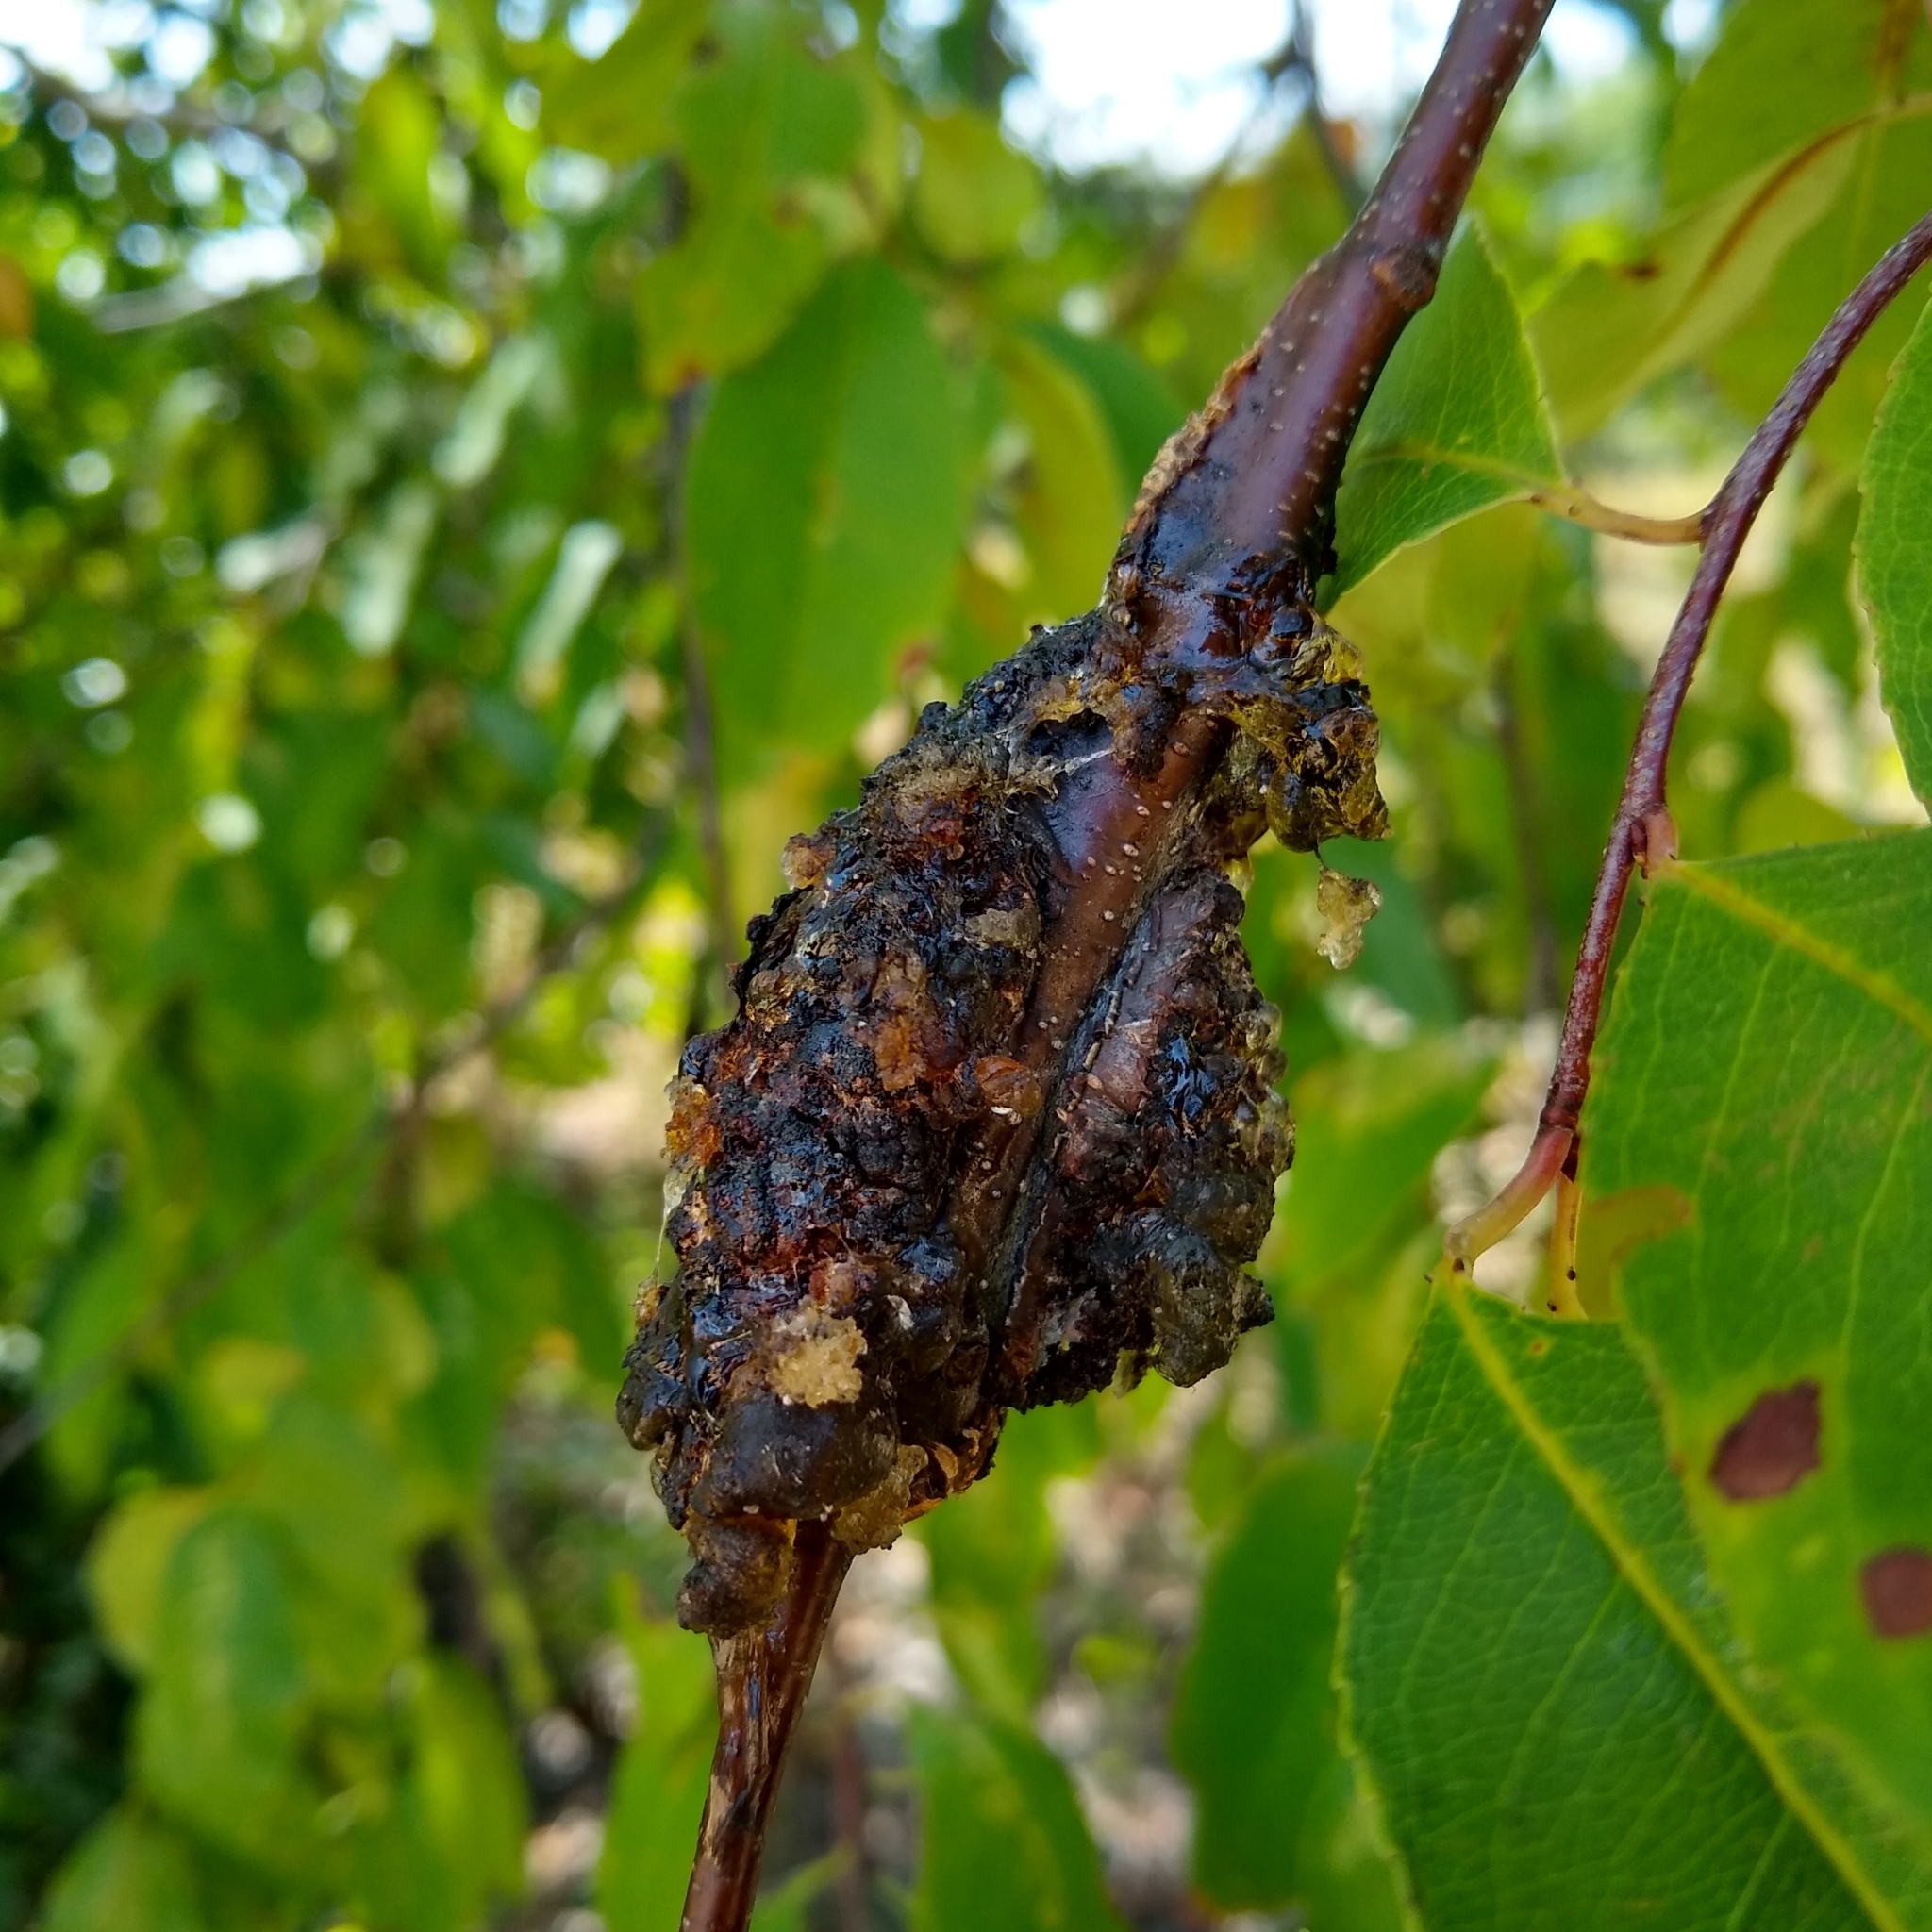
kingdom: Fungi
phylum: Ascomycota
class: Dothideomycetes
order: Venturiales
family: Venturiaceae
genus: Apiosporina
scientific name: Apiosporina morbosa
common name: Black knot
